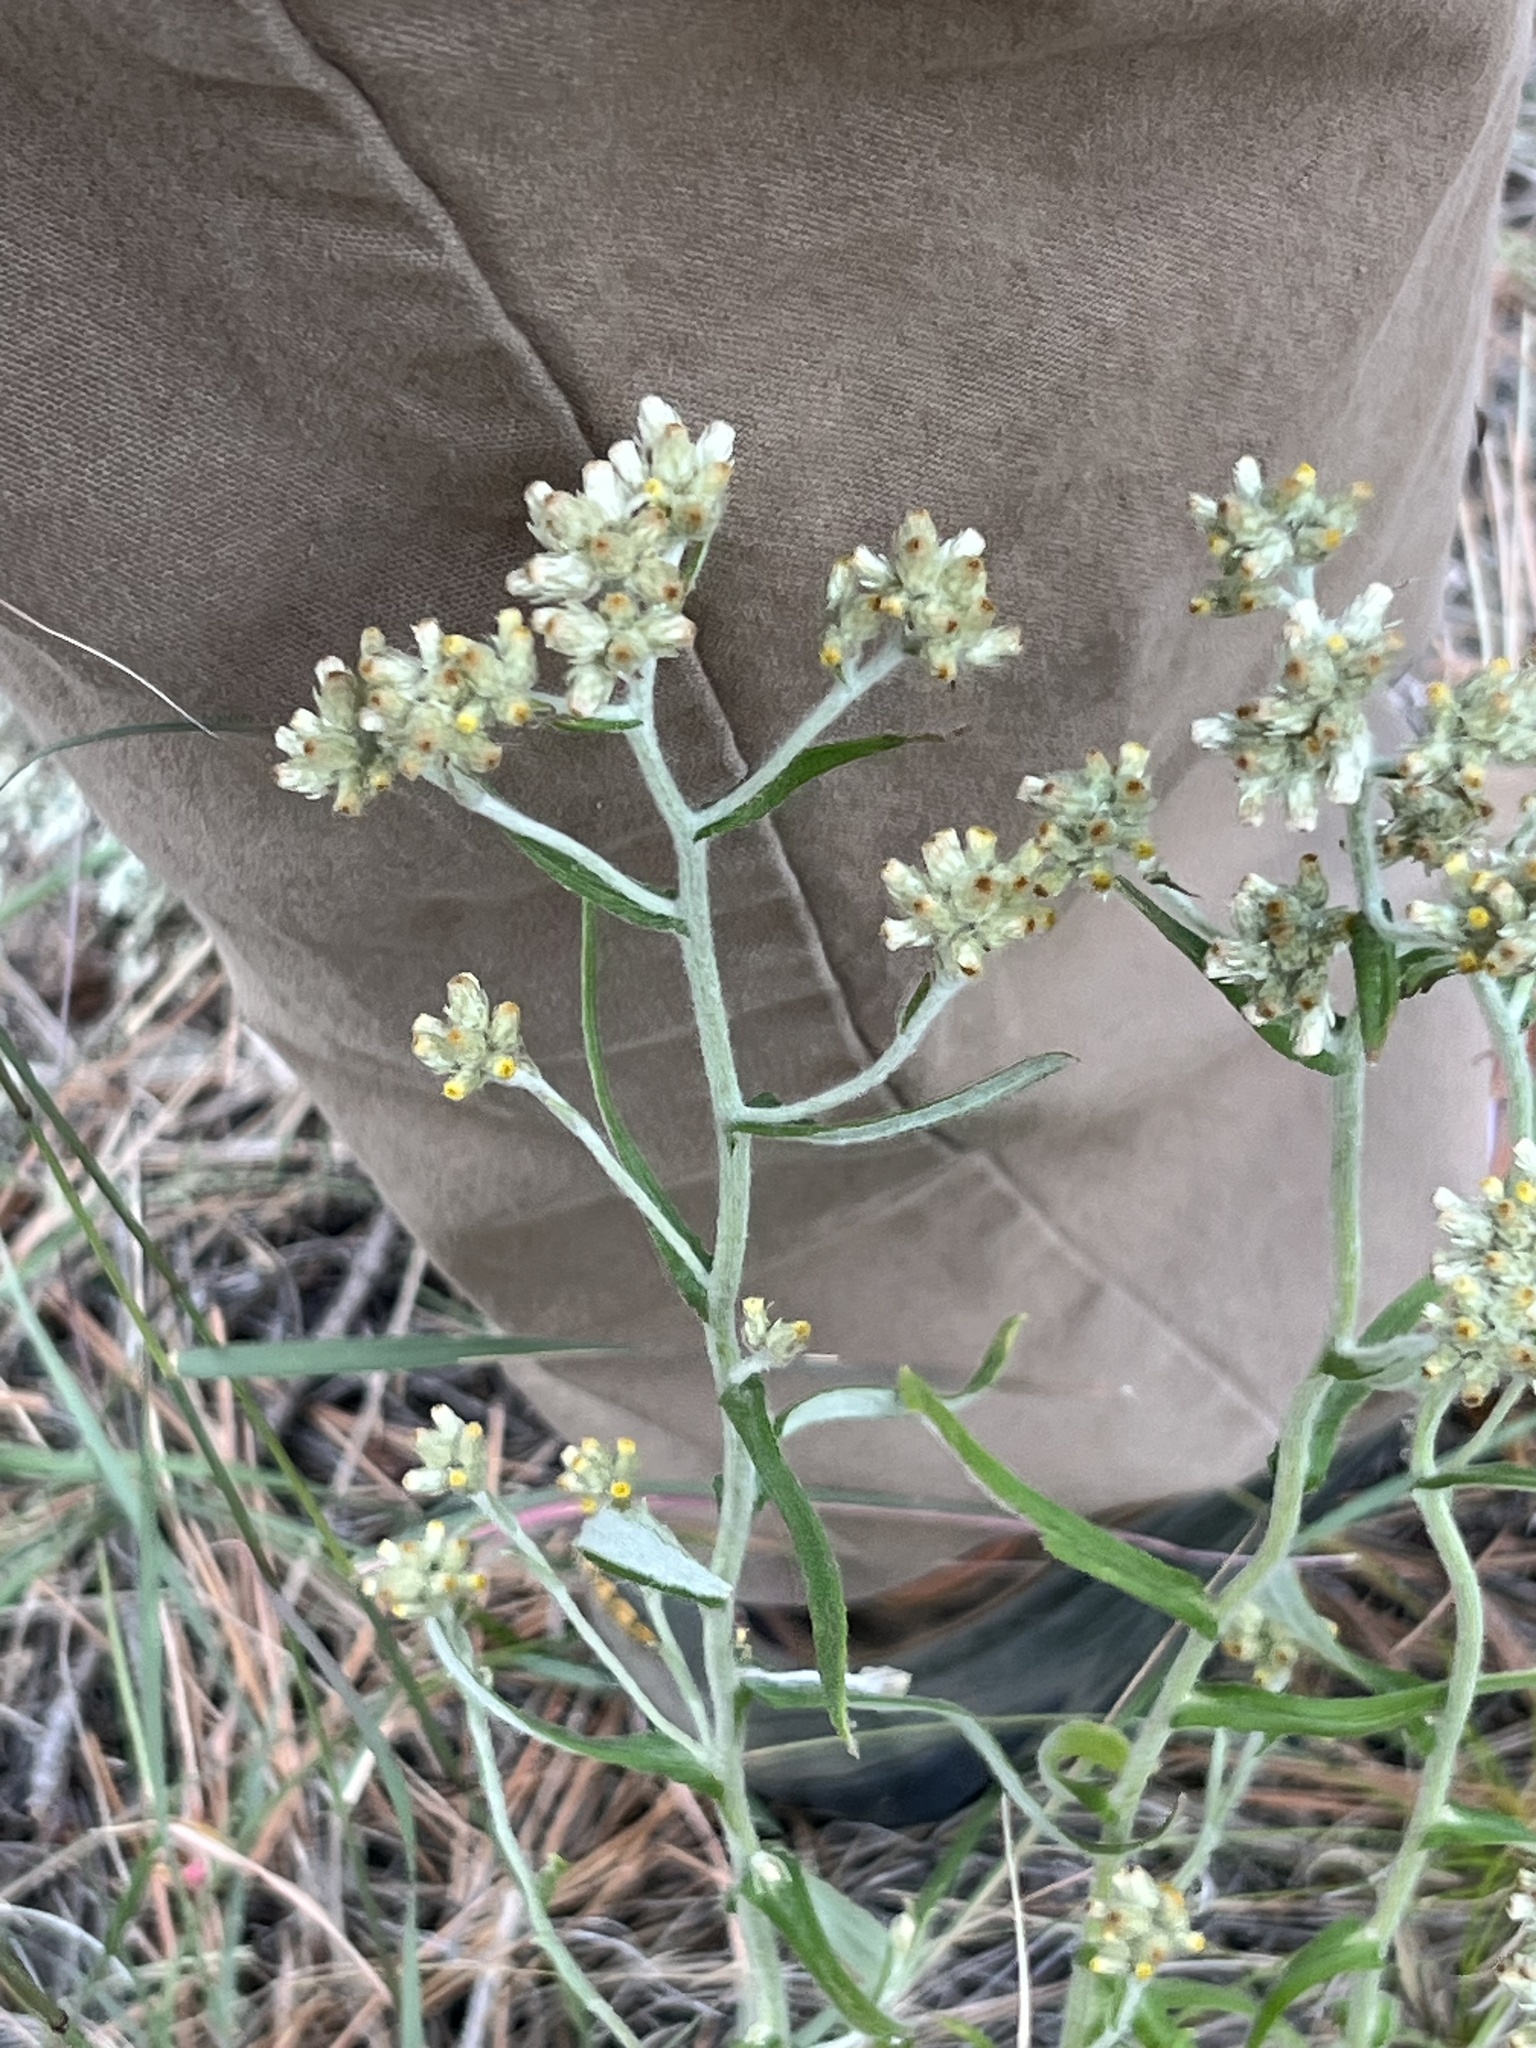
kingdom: Plantae
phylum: Tracheophyta
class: Magnoliopsida
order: Asterales
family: Asteraceae
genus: Pseudognaphalium
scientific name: Pseudognaphalium macounii
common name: Clammy cudweed
